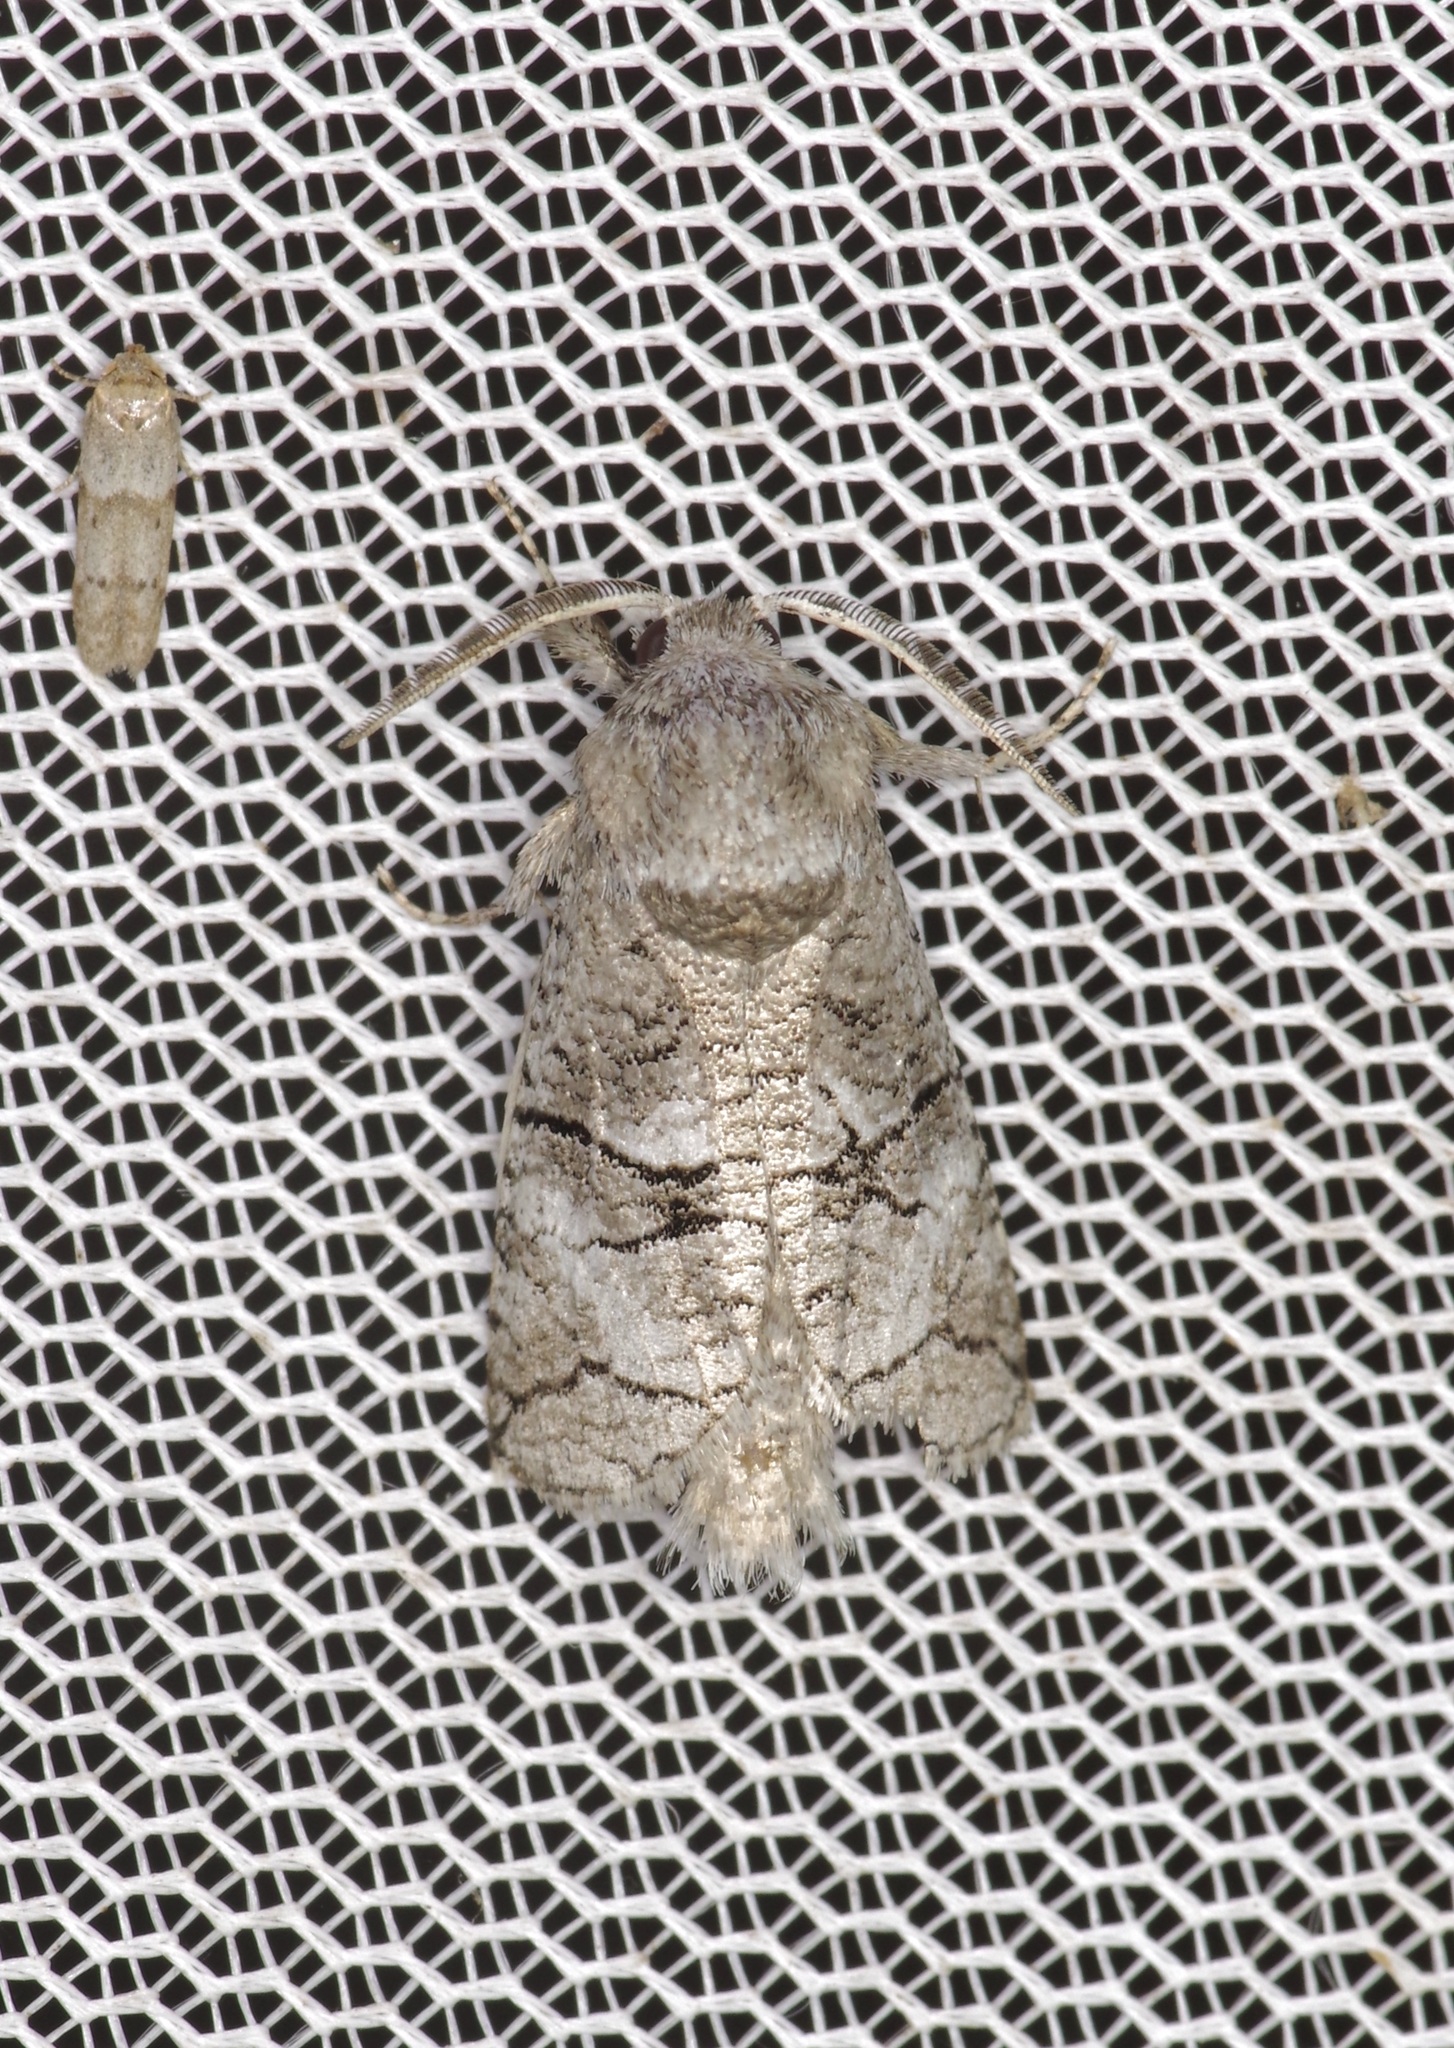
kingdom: Animalia
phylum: Arthropoda
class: Insecta
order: Lepidoptera
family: Cossidae
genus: Fania
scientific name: Fania nanus
